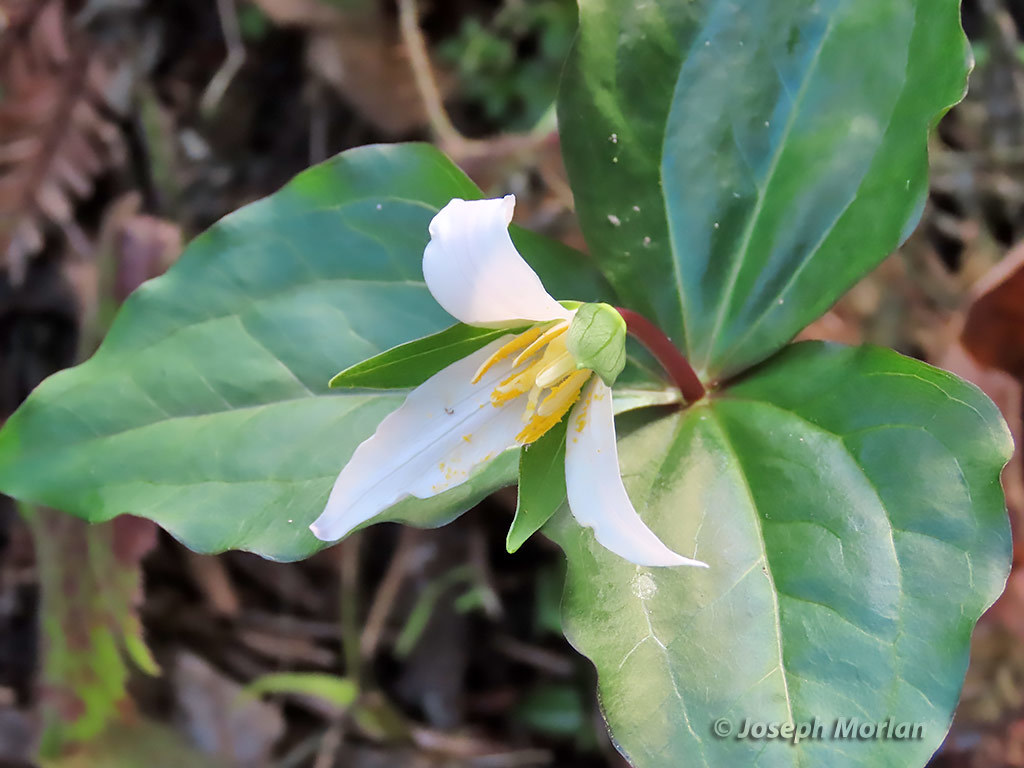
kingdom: Plantae
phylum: Tracheophyta
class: Liliopsida
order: Liliales
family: Melanthiaceae
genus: Trillium
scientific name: Trillium ovatum
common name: Pacific trillium
